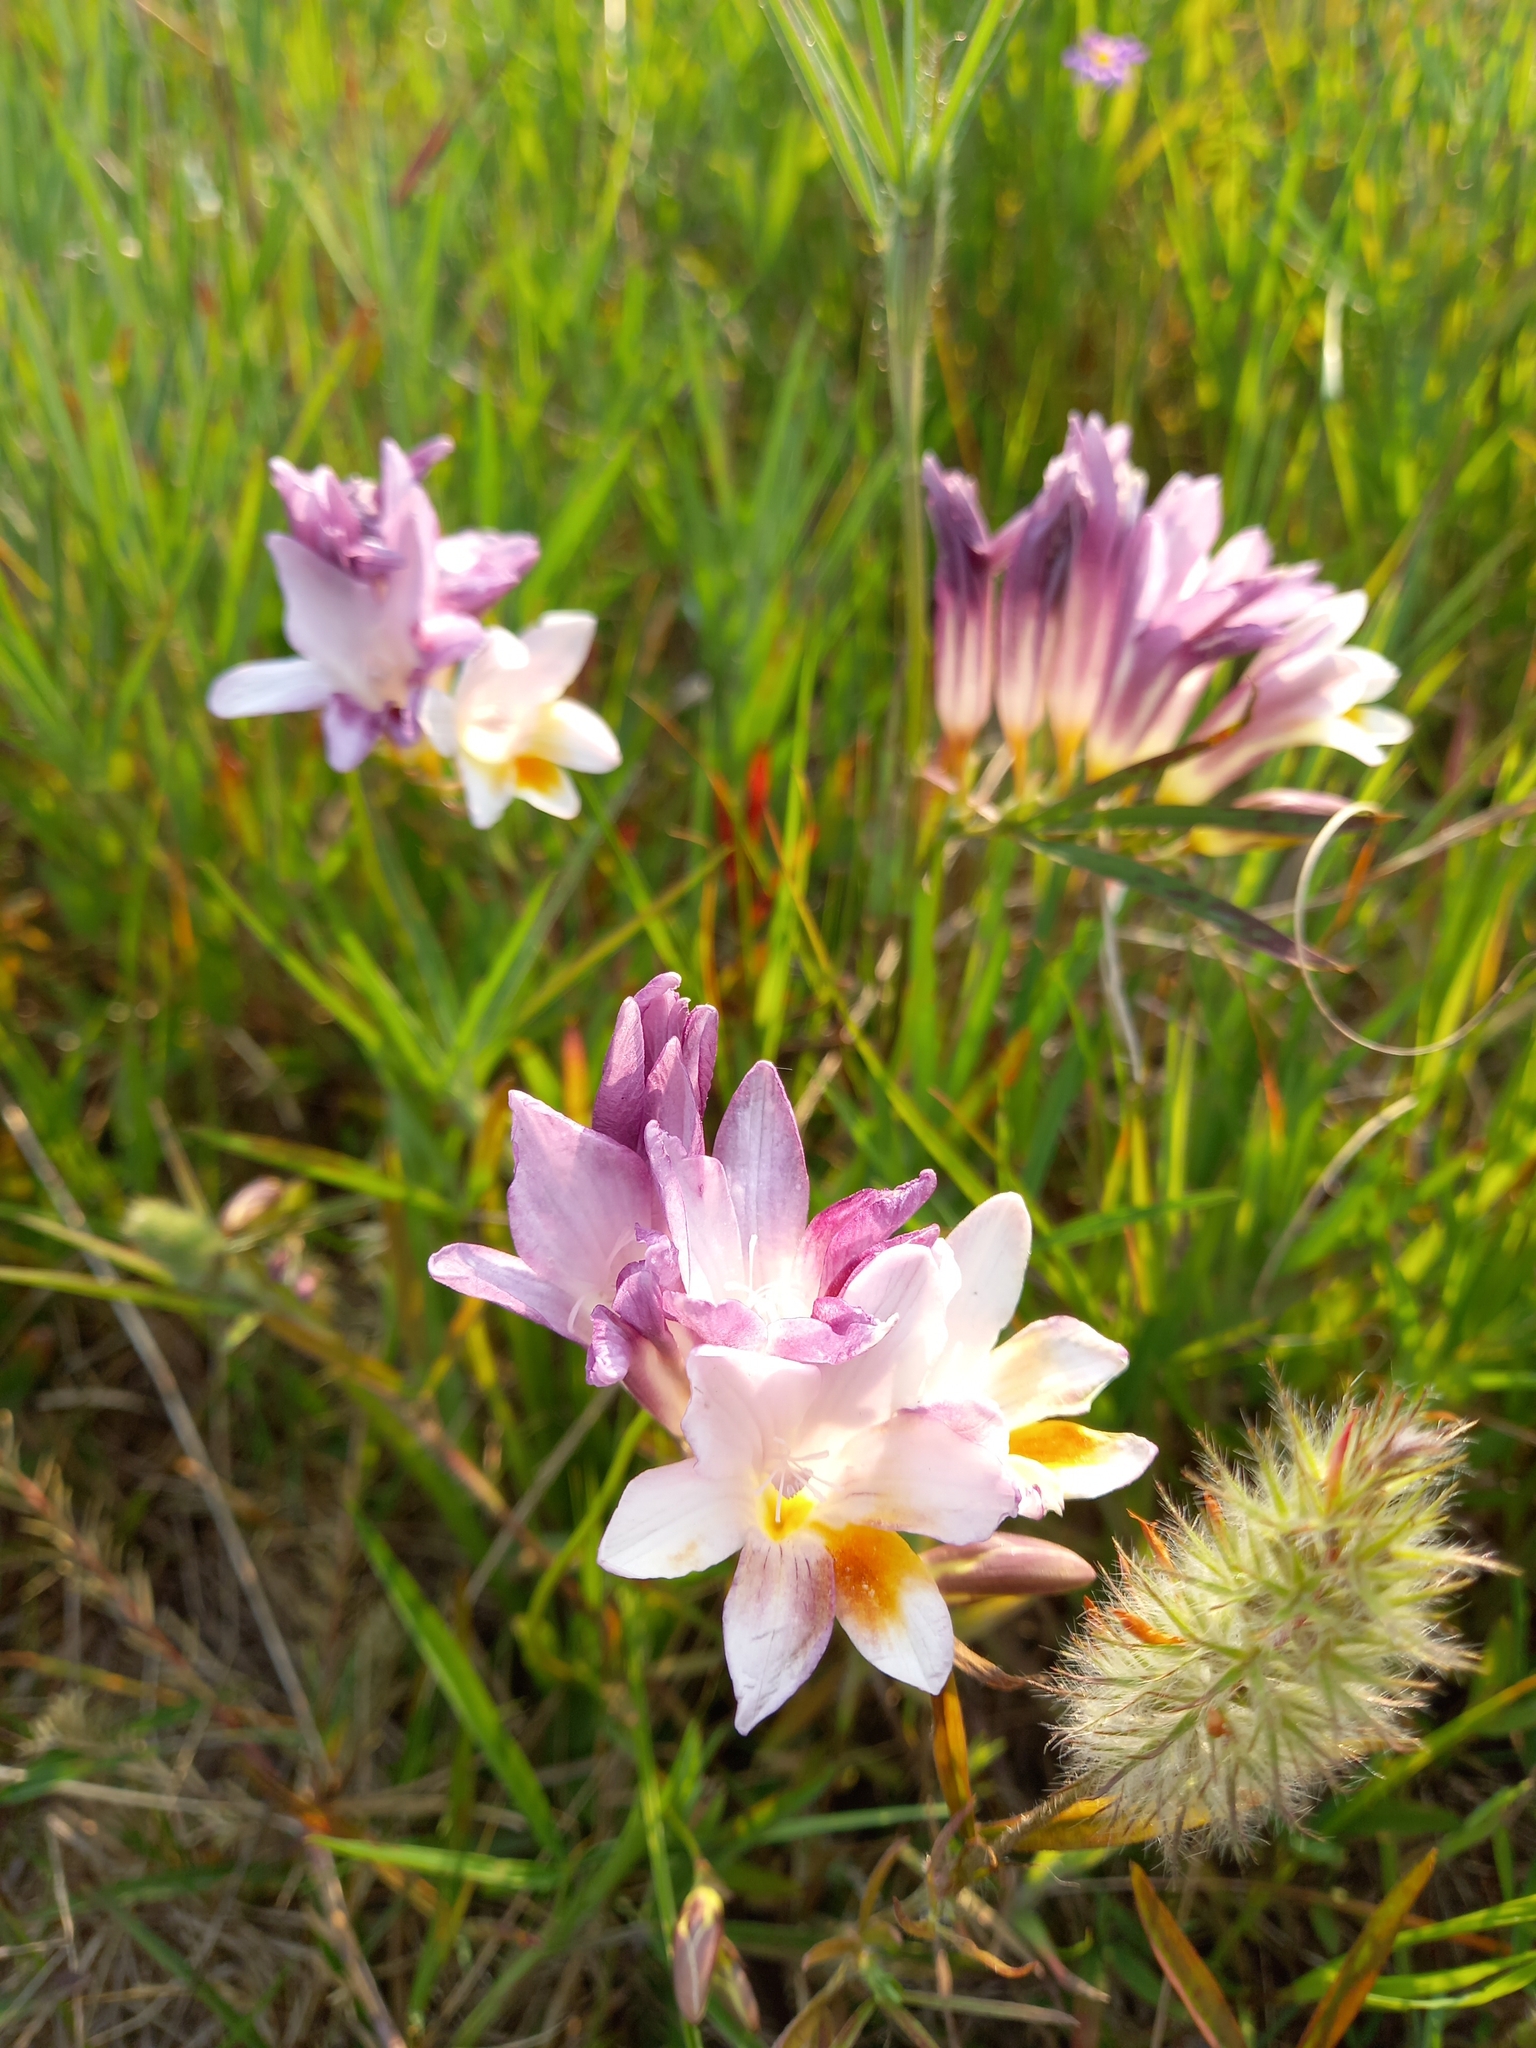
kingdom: Plantae
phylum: Tracheophyta
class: Liliopsida
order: Asparagales
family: Iridaceae
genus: Freesia
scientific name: Freesia leichtlinii
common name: Freesia
